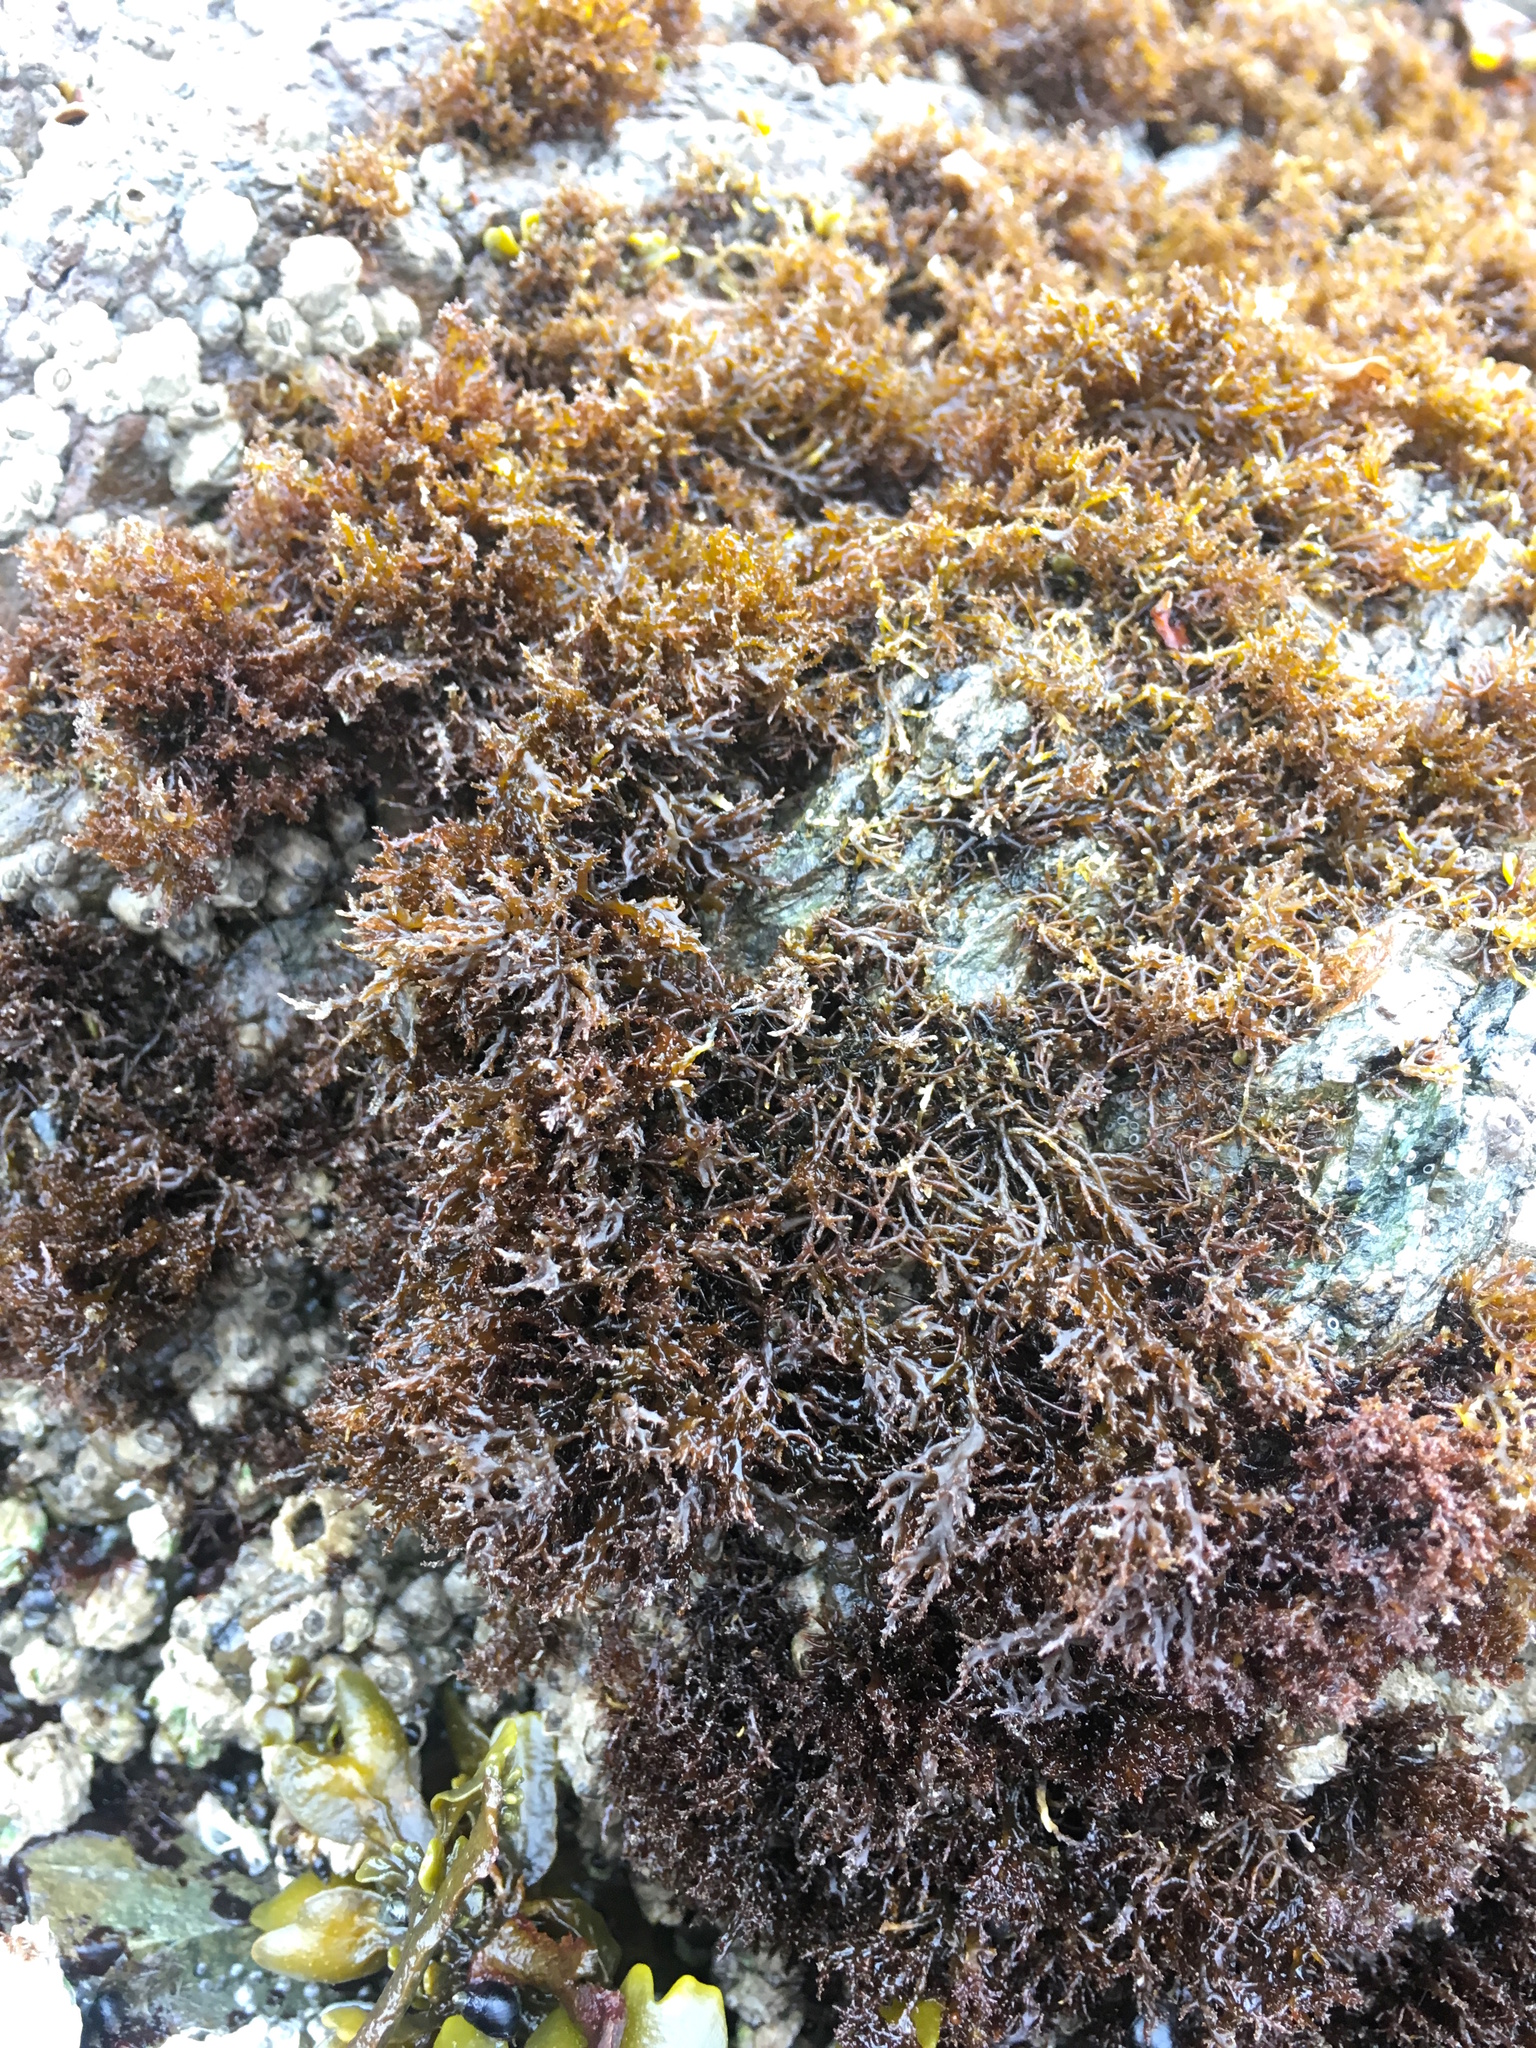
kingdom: Plantae
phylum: Rhodophyta
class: Florideophyceae
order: Gigartinales
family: Endocladiaceae
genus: Endocladia
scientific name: Endocladia muricata
